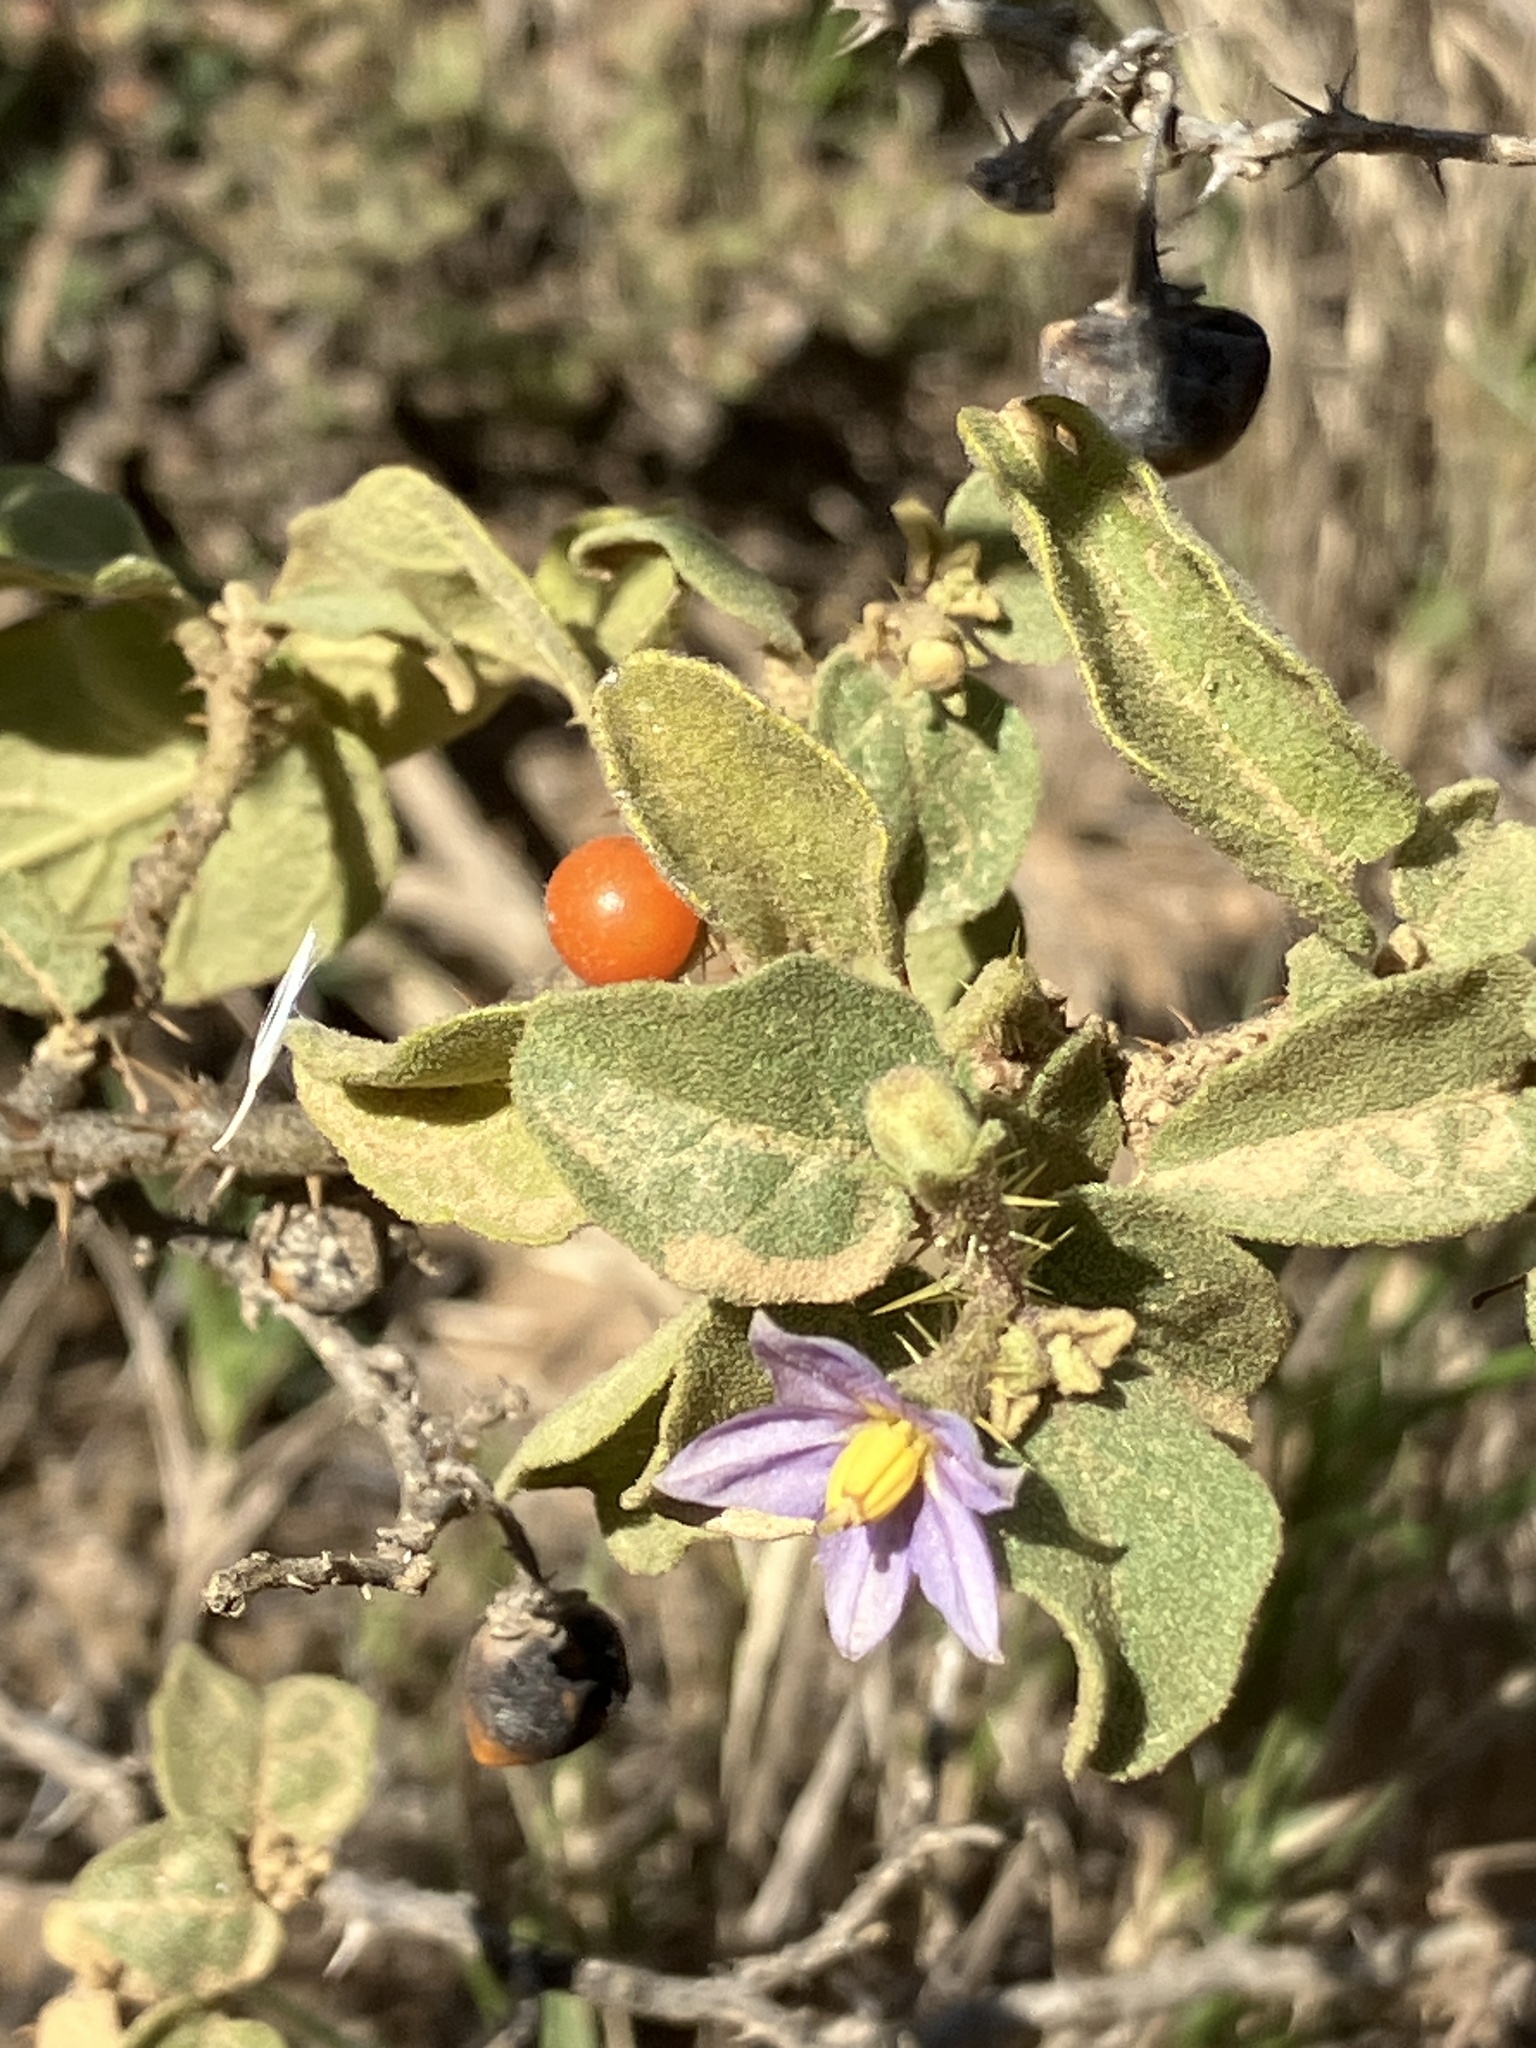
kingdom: Plantae
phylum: Tracheophyta
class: Magnoliopsida
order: Solanales
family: Solanaceae
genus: Solanum
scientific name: Solanum tomentosum
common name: Wild aubergine
